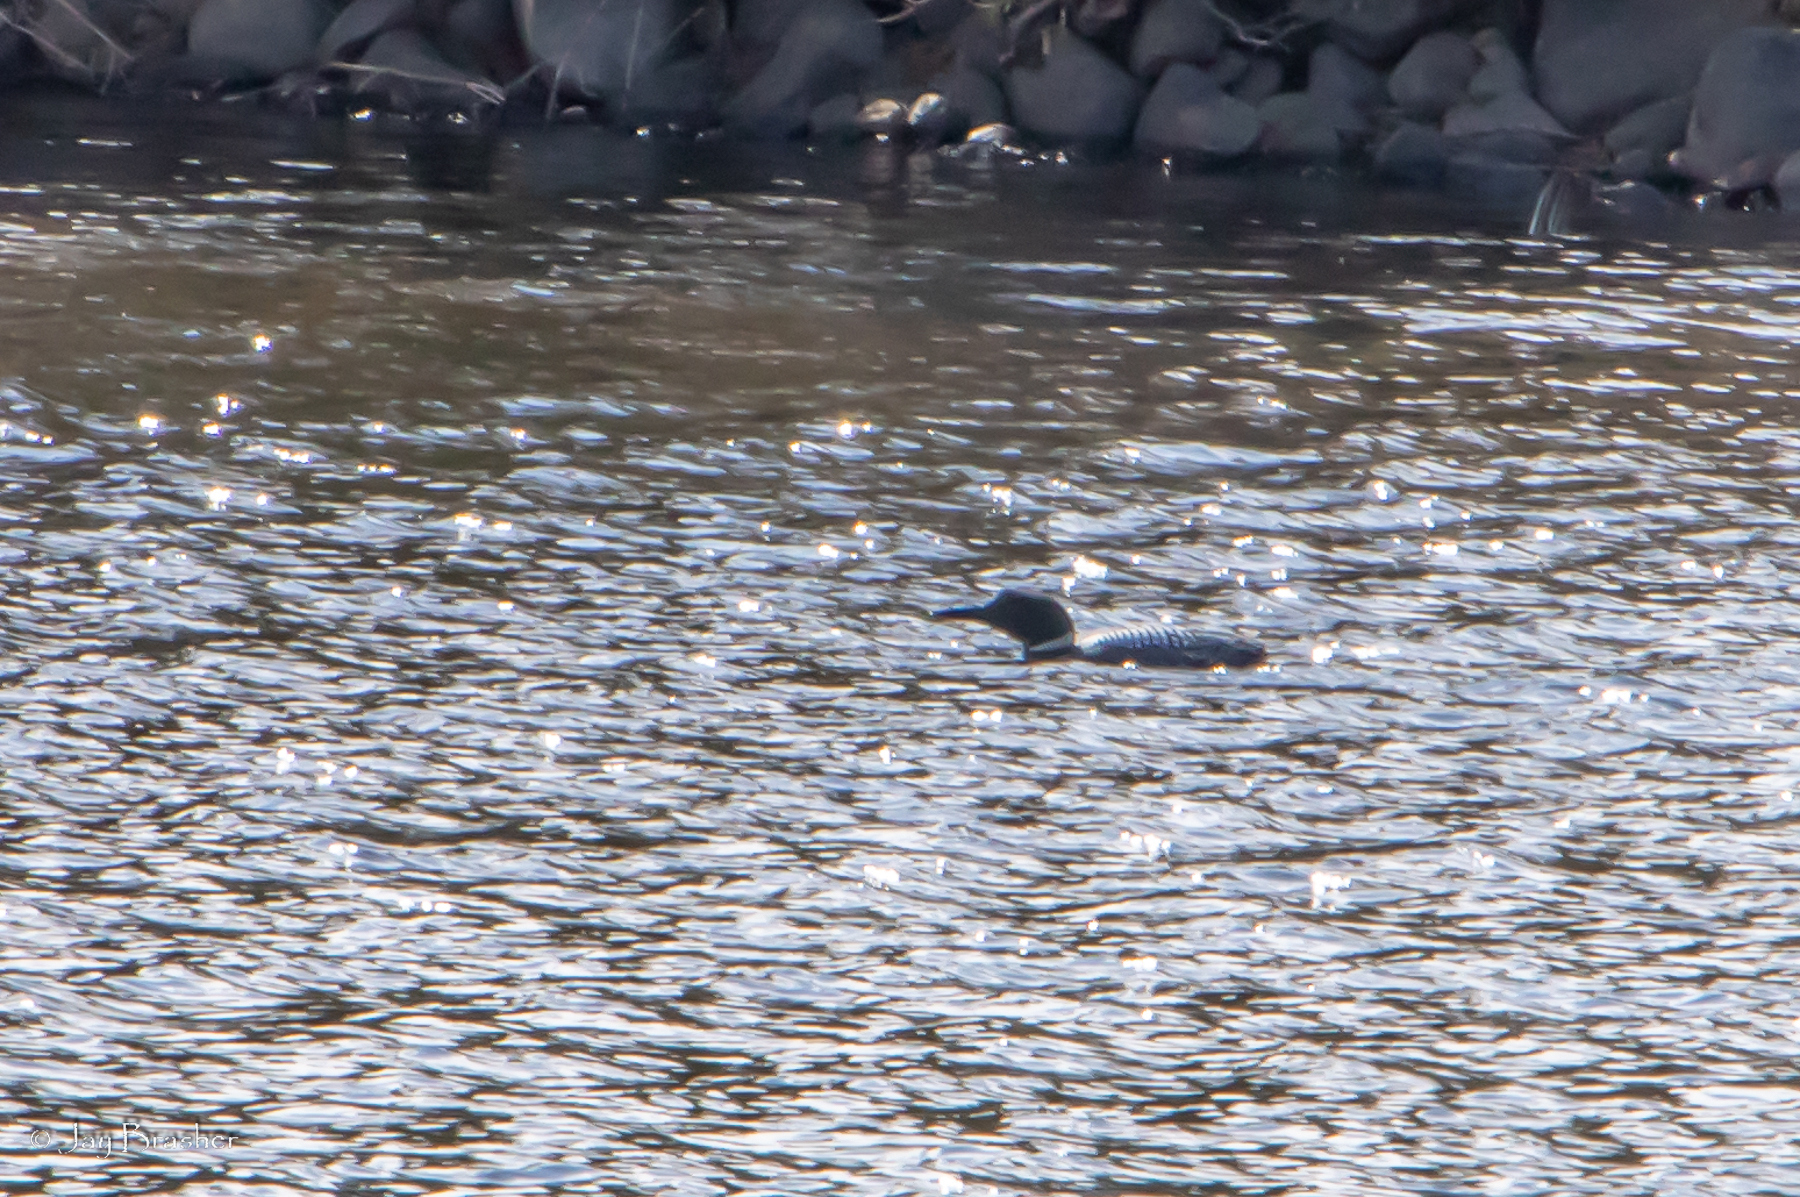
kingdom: Animalia
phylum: Chordata
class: Aves
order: Gaviiformes
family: Gaviidae
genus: Gavia
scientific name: Gavia immer
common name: Common loon
